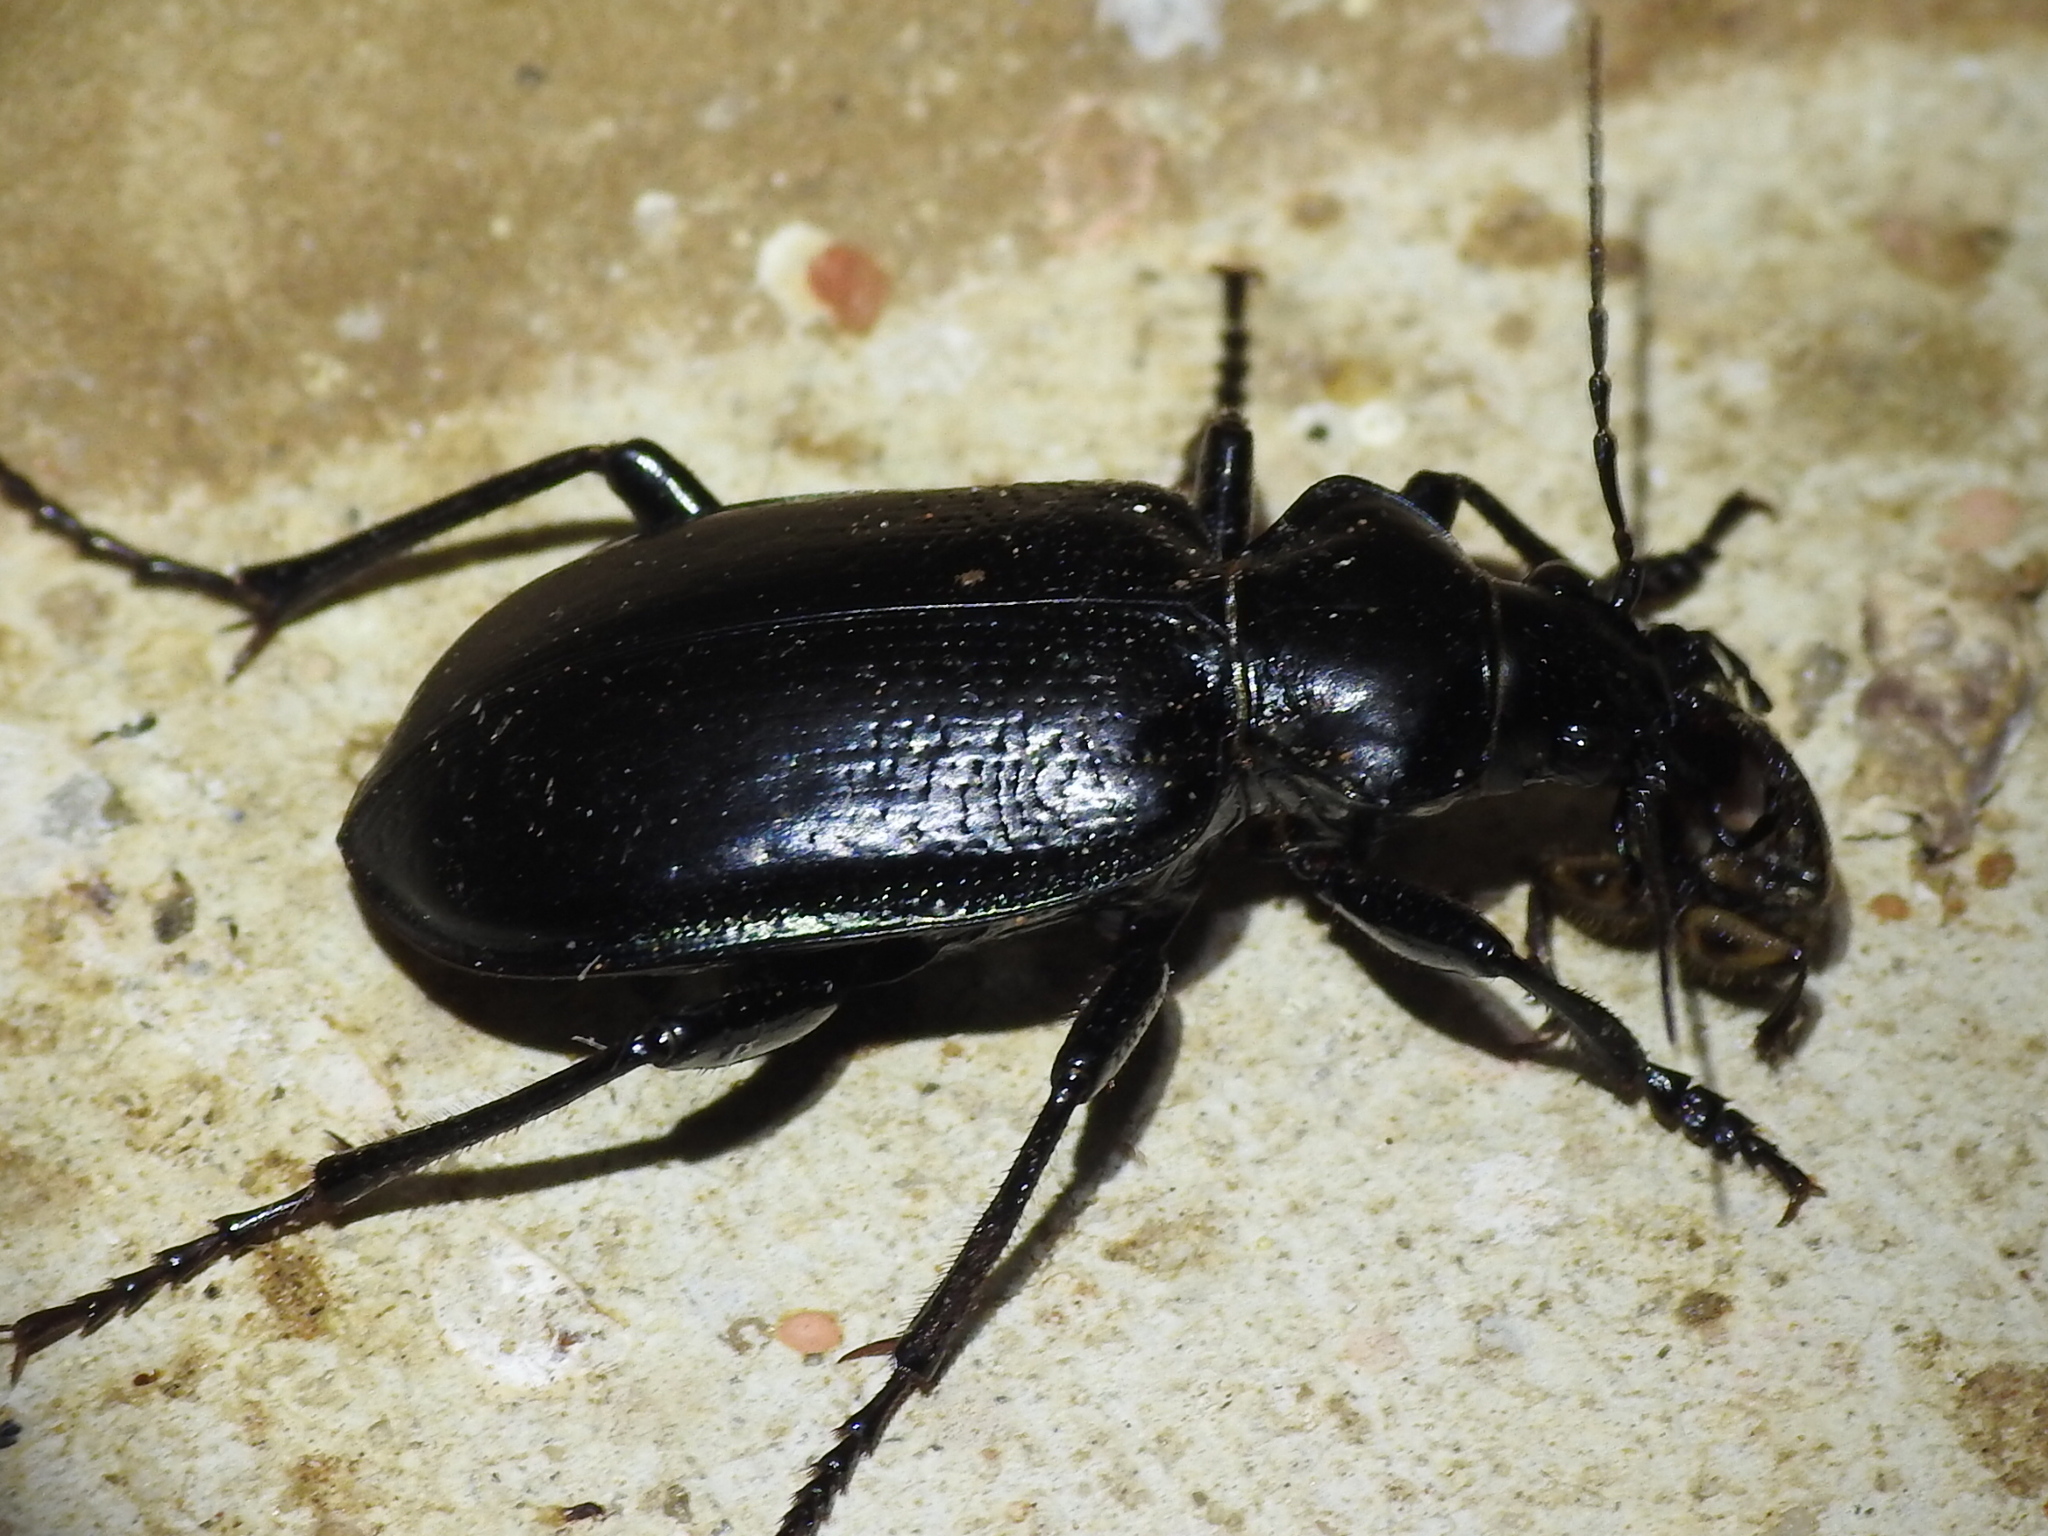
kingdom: Animalia
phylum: Arthropoda
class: Insecta
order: Coleoptera
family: Carabidae
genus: Calosoma
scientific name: Calosoma marginale
